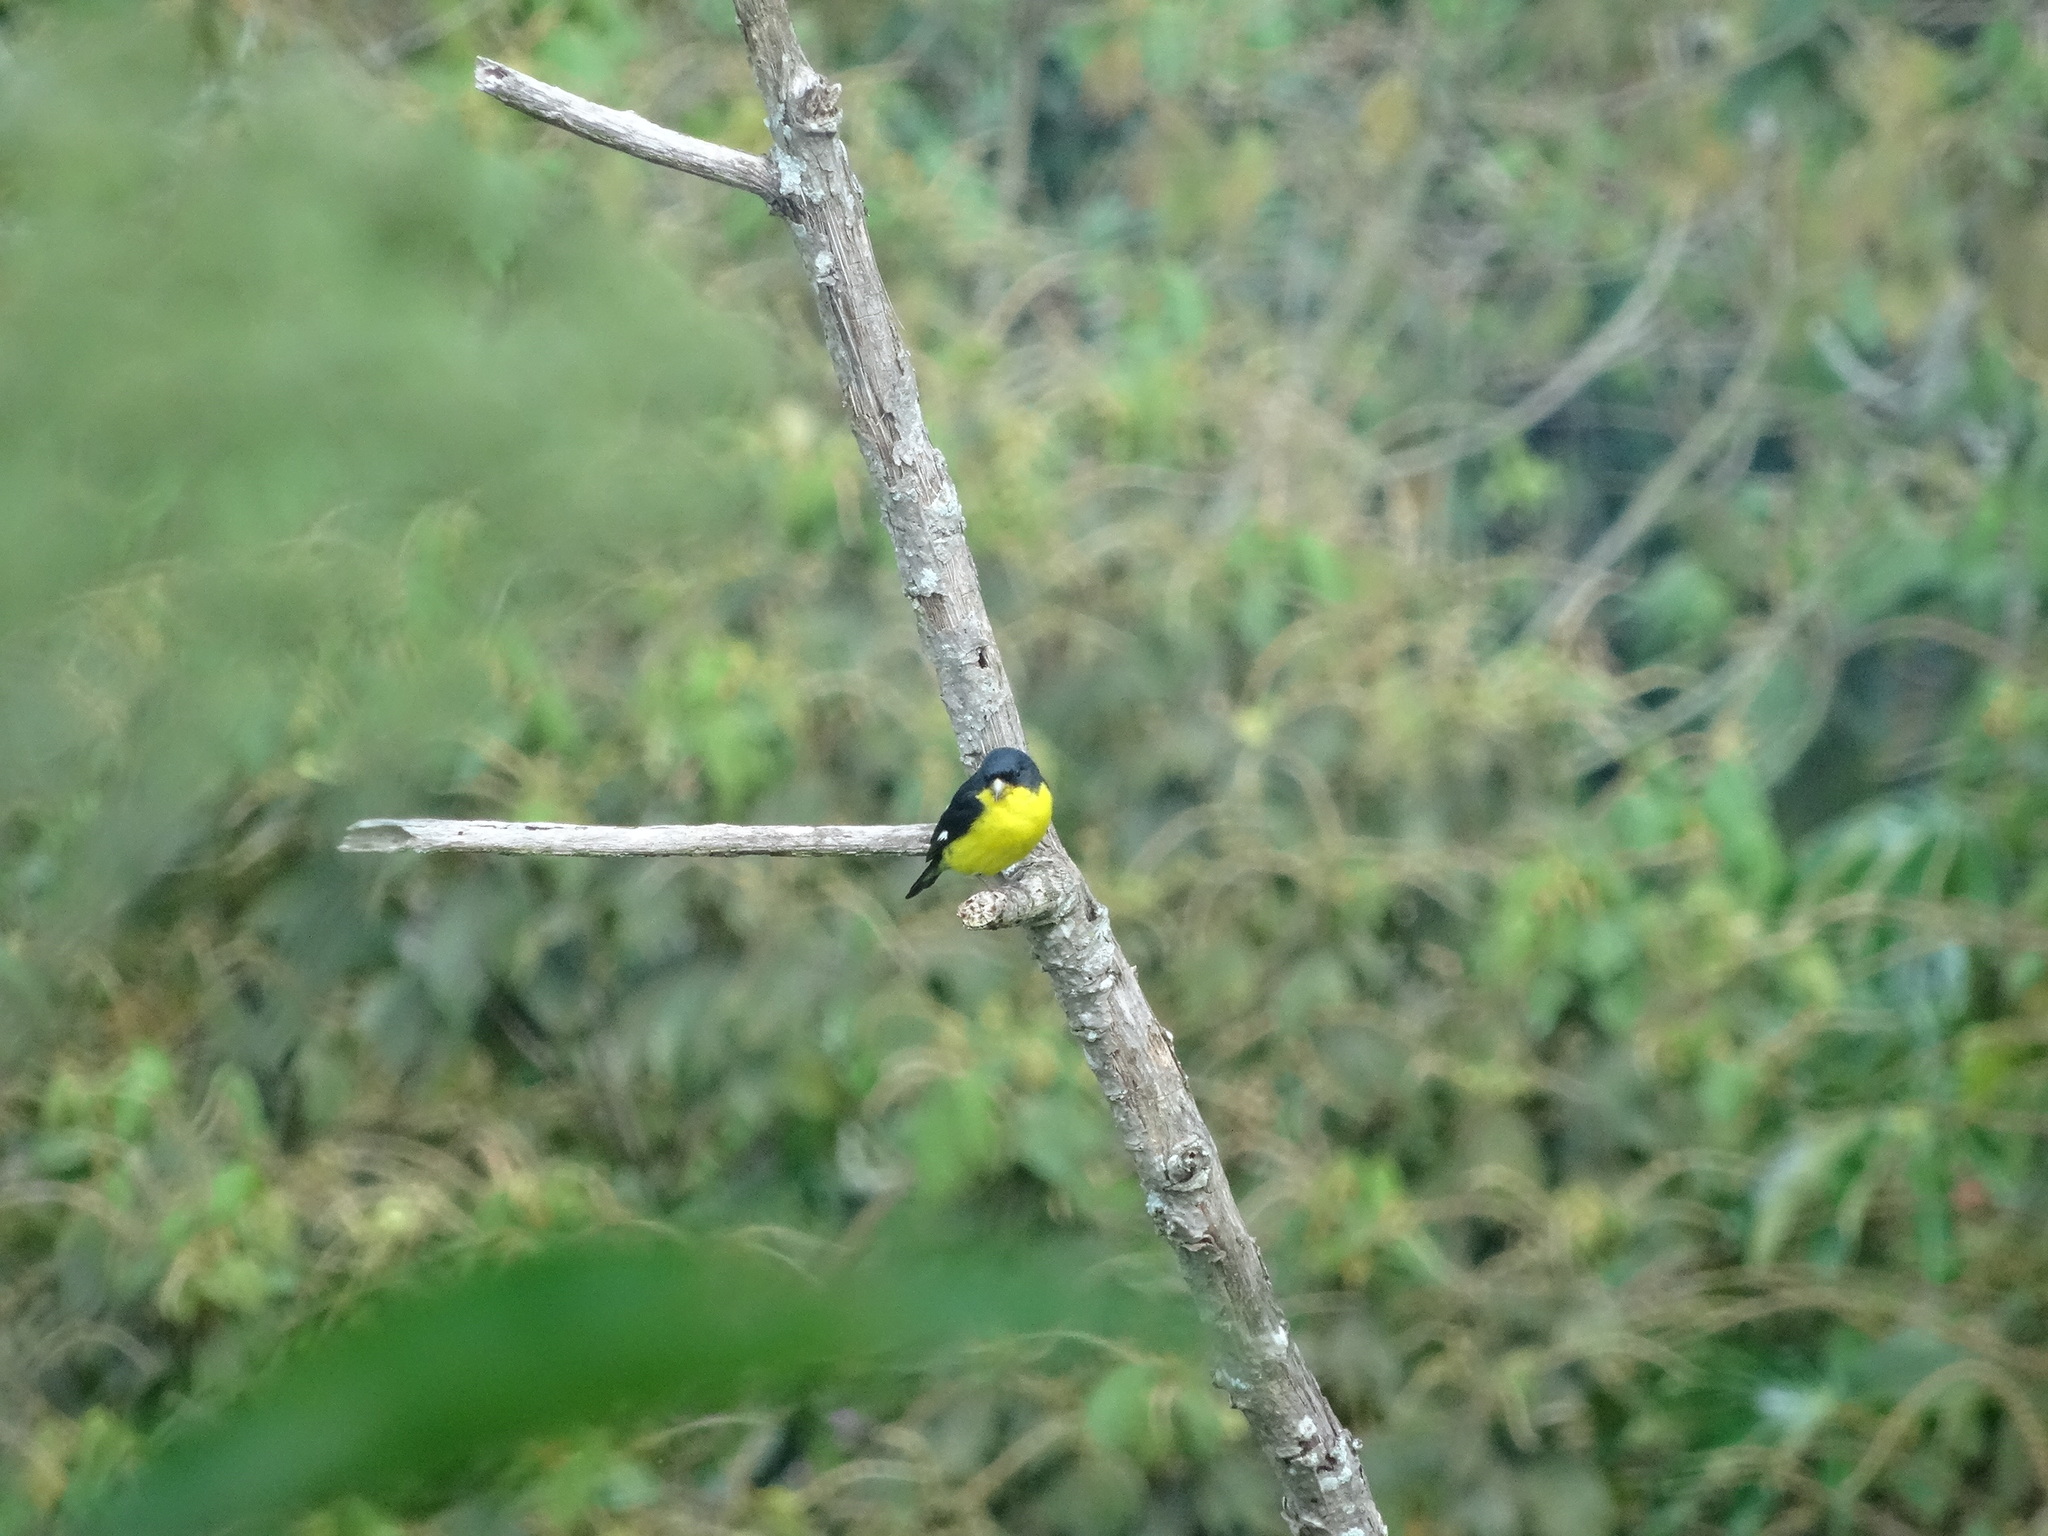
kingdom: Animalia
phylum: Chordata
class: Aves
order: Passeriformes
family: Fringillidae
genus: Spinus
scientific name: Spinus psaltria
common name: Lesser goldfinch
